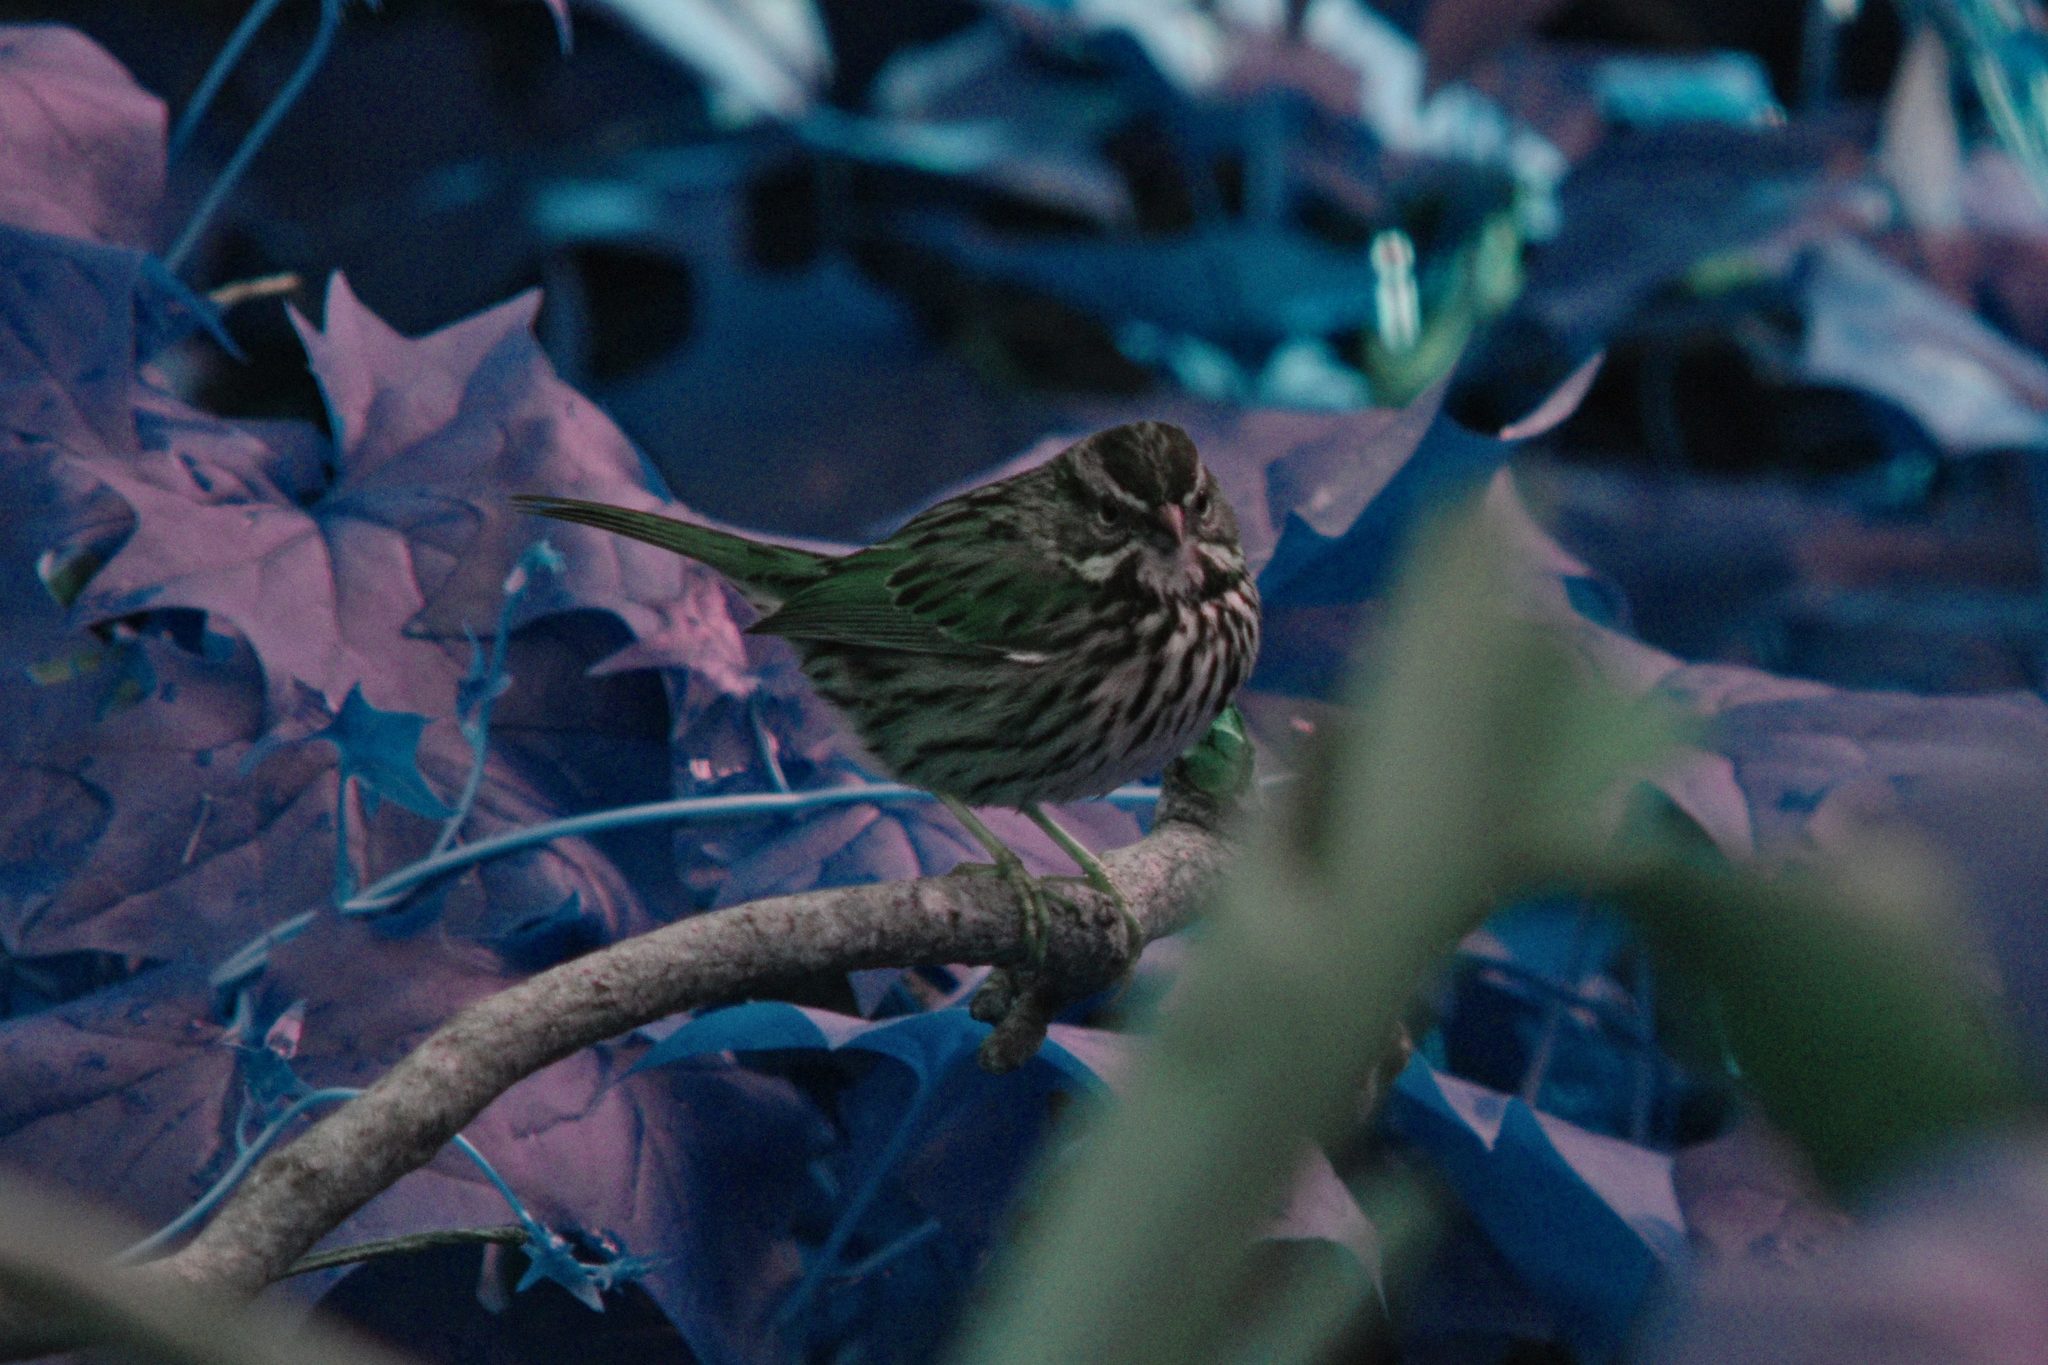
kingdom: Animalia
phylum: Chordata
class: Aves
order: Passeriformes
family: Passerellidae
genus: Melospiza
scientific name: Melospiza melodia
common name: Song sparrow
